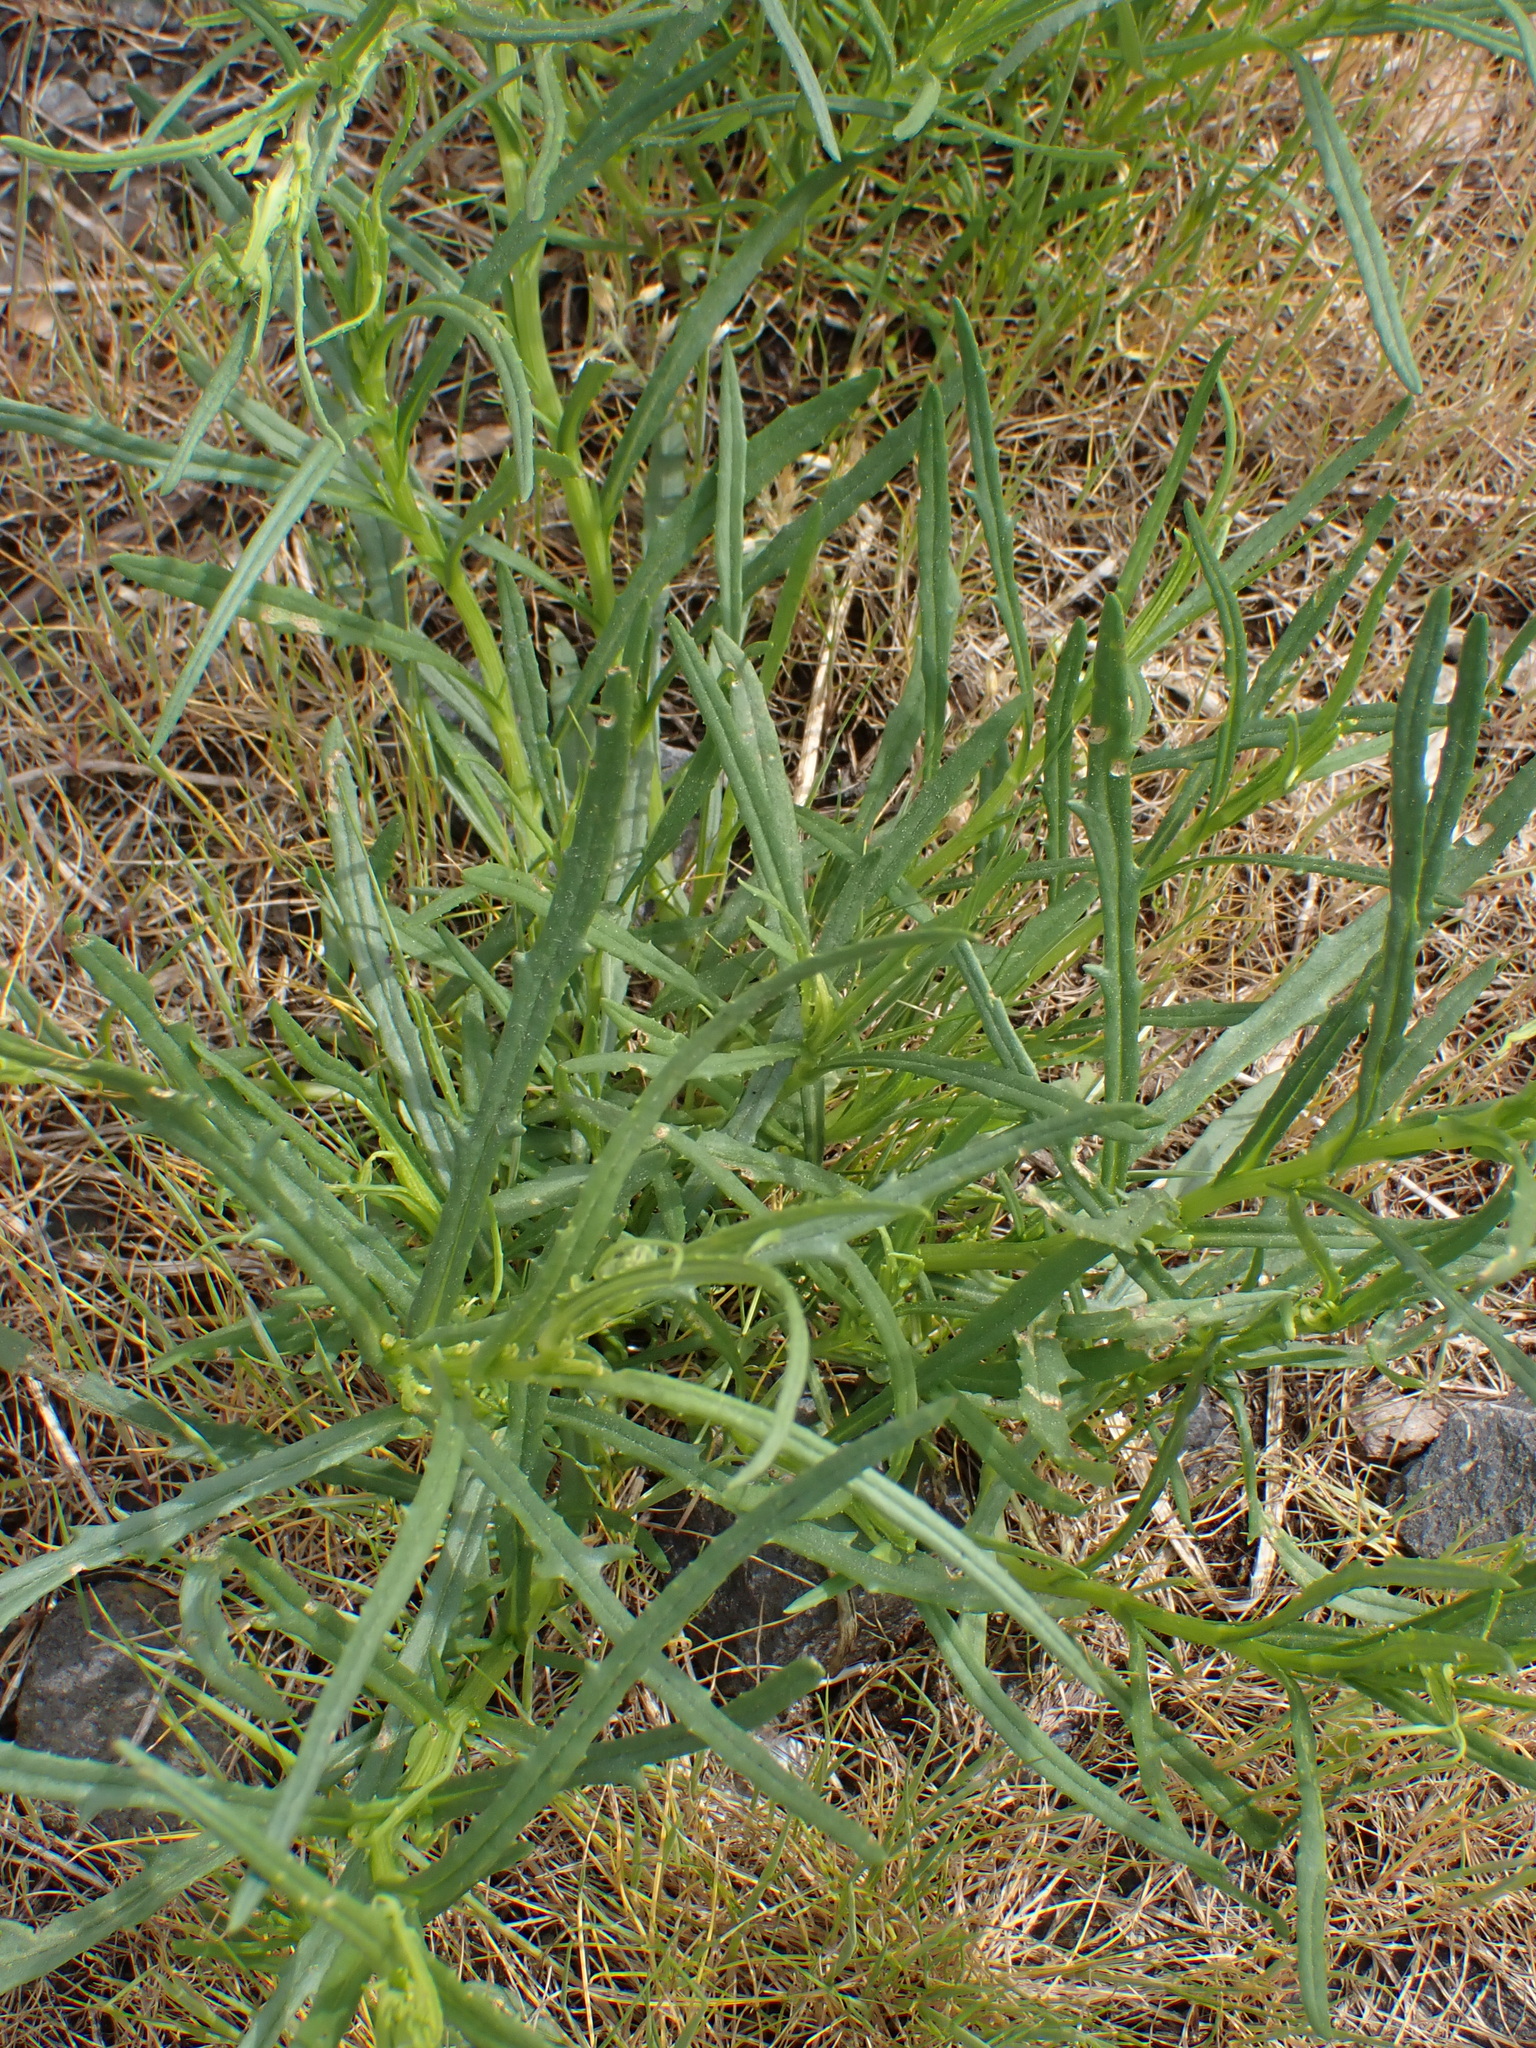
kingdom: Plantae
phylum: Tracheophyta
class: Magnoliopsida
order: Asterales
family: Asteraceae
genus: Senecio
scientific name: Senecio inaequidens
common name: Narrow-leaved ragwort
